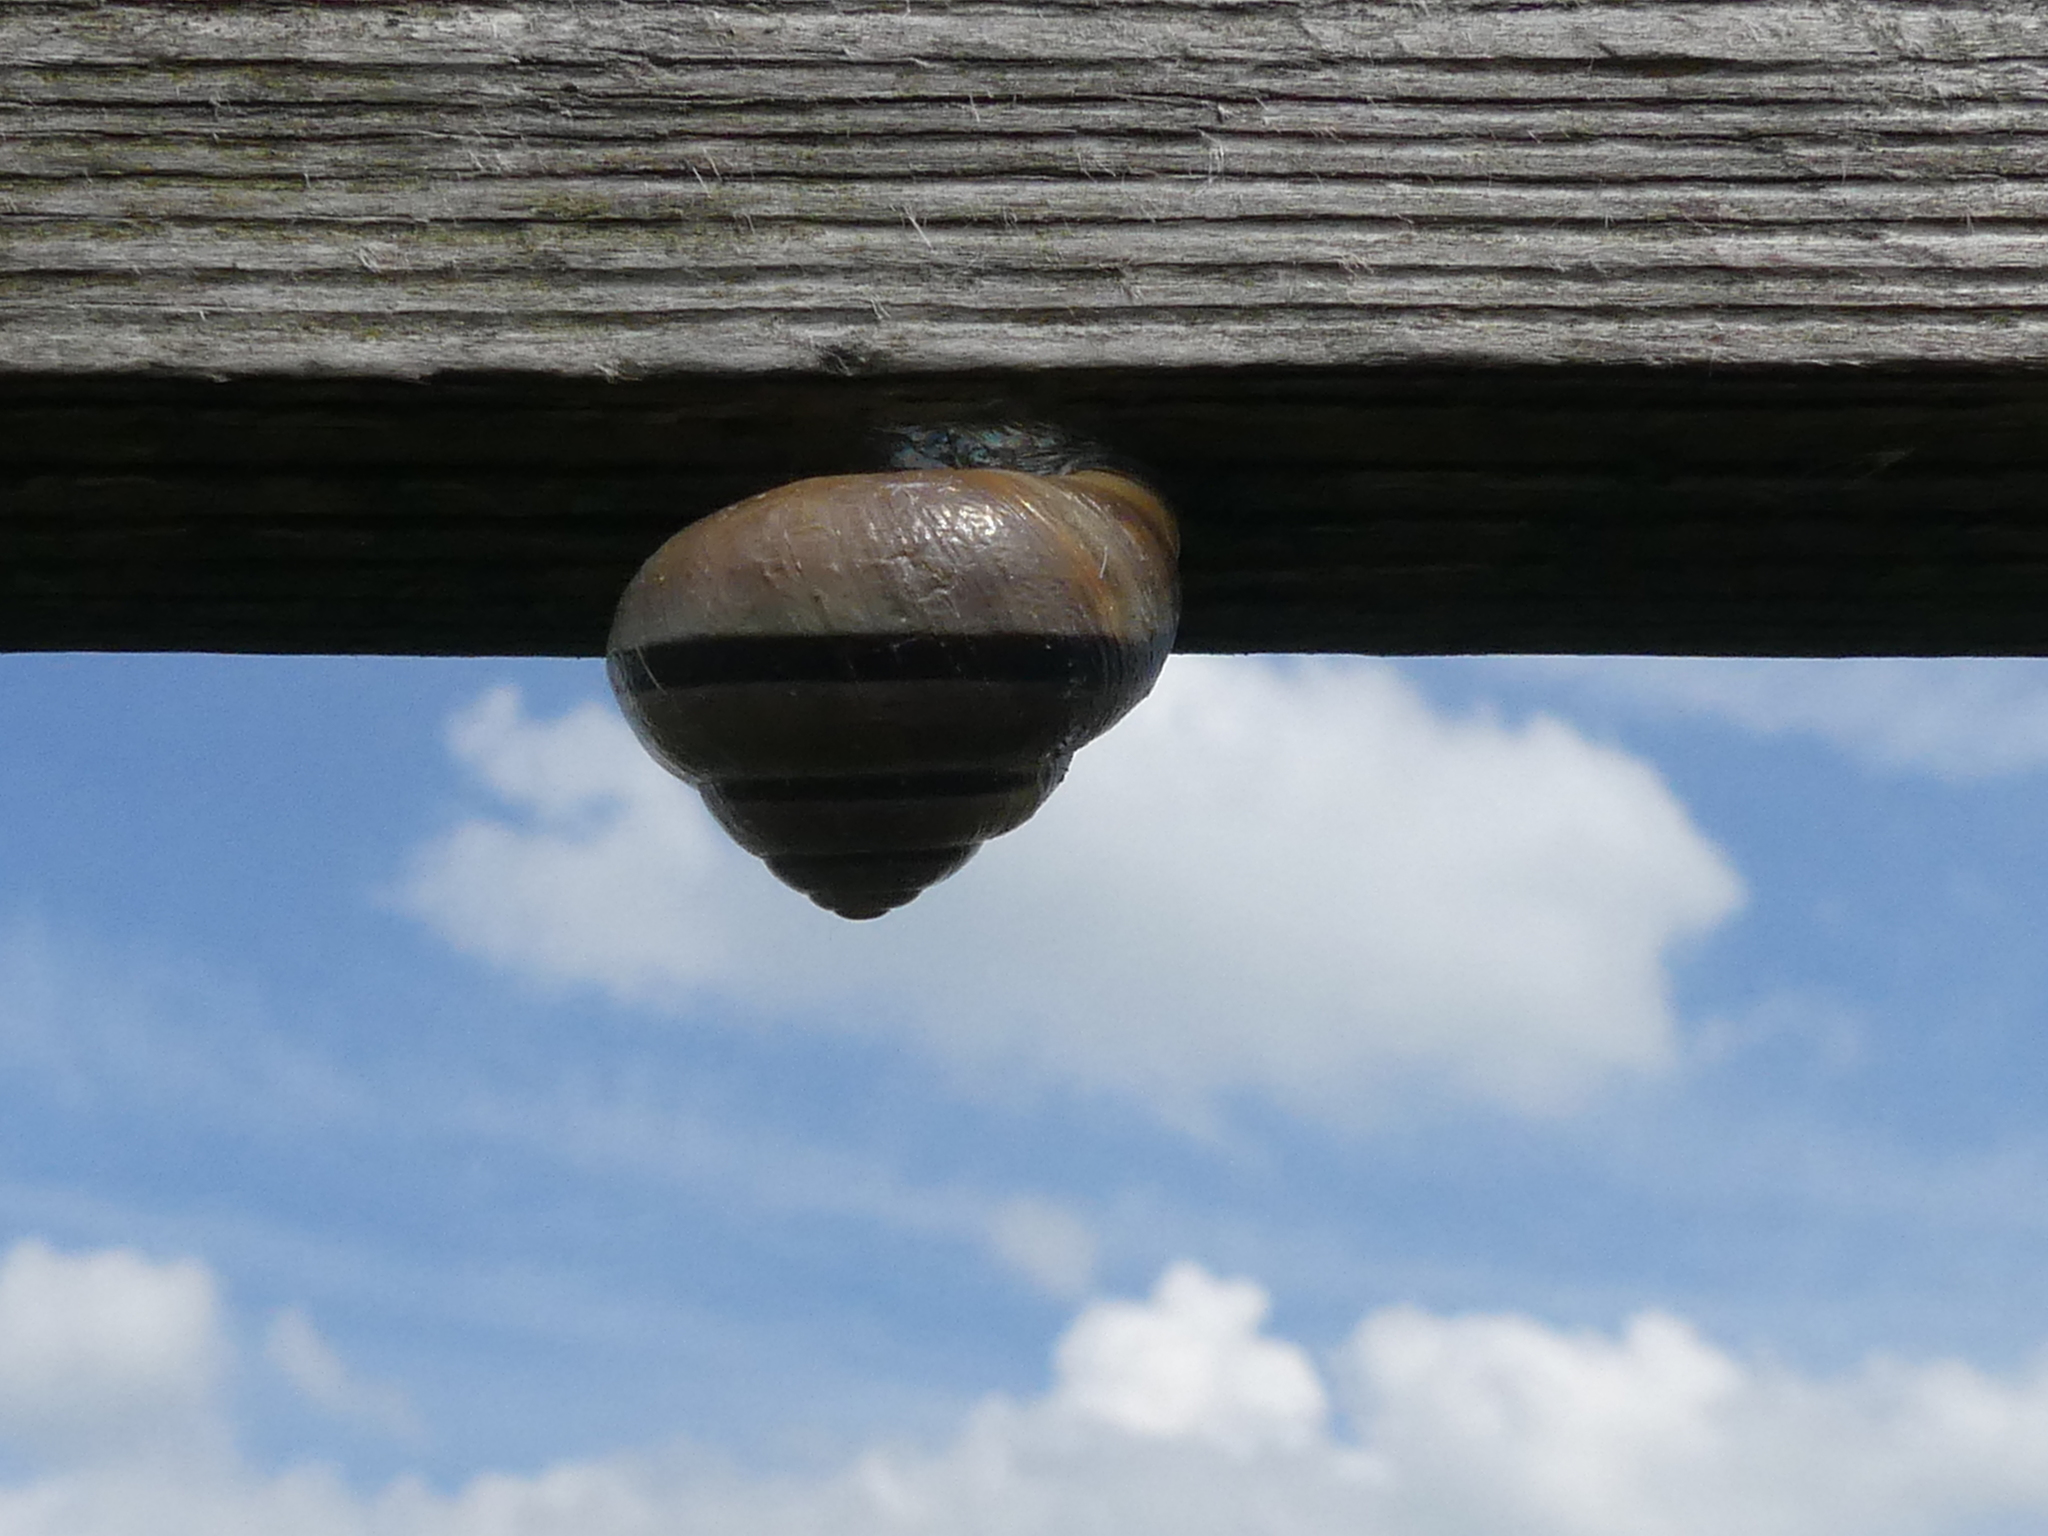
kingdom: Animalia
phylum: Mollusca
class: Gastropoda
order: Stylommatophora
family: Helicidae
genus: Cepaea
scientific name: Cepaea nemoralis
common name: Grovesnail
